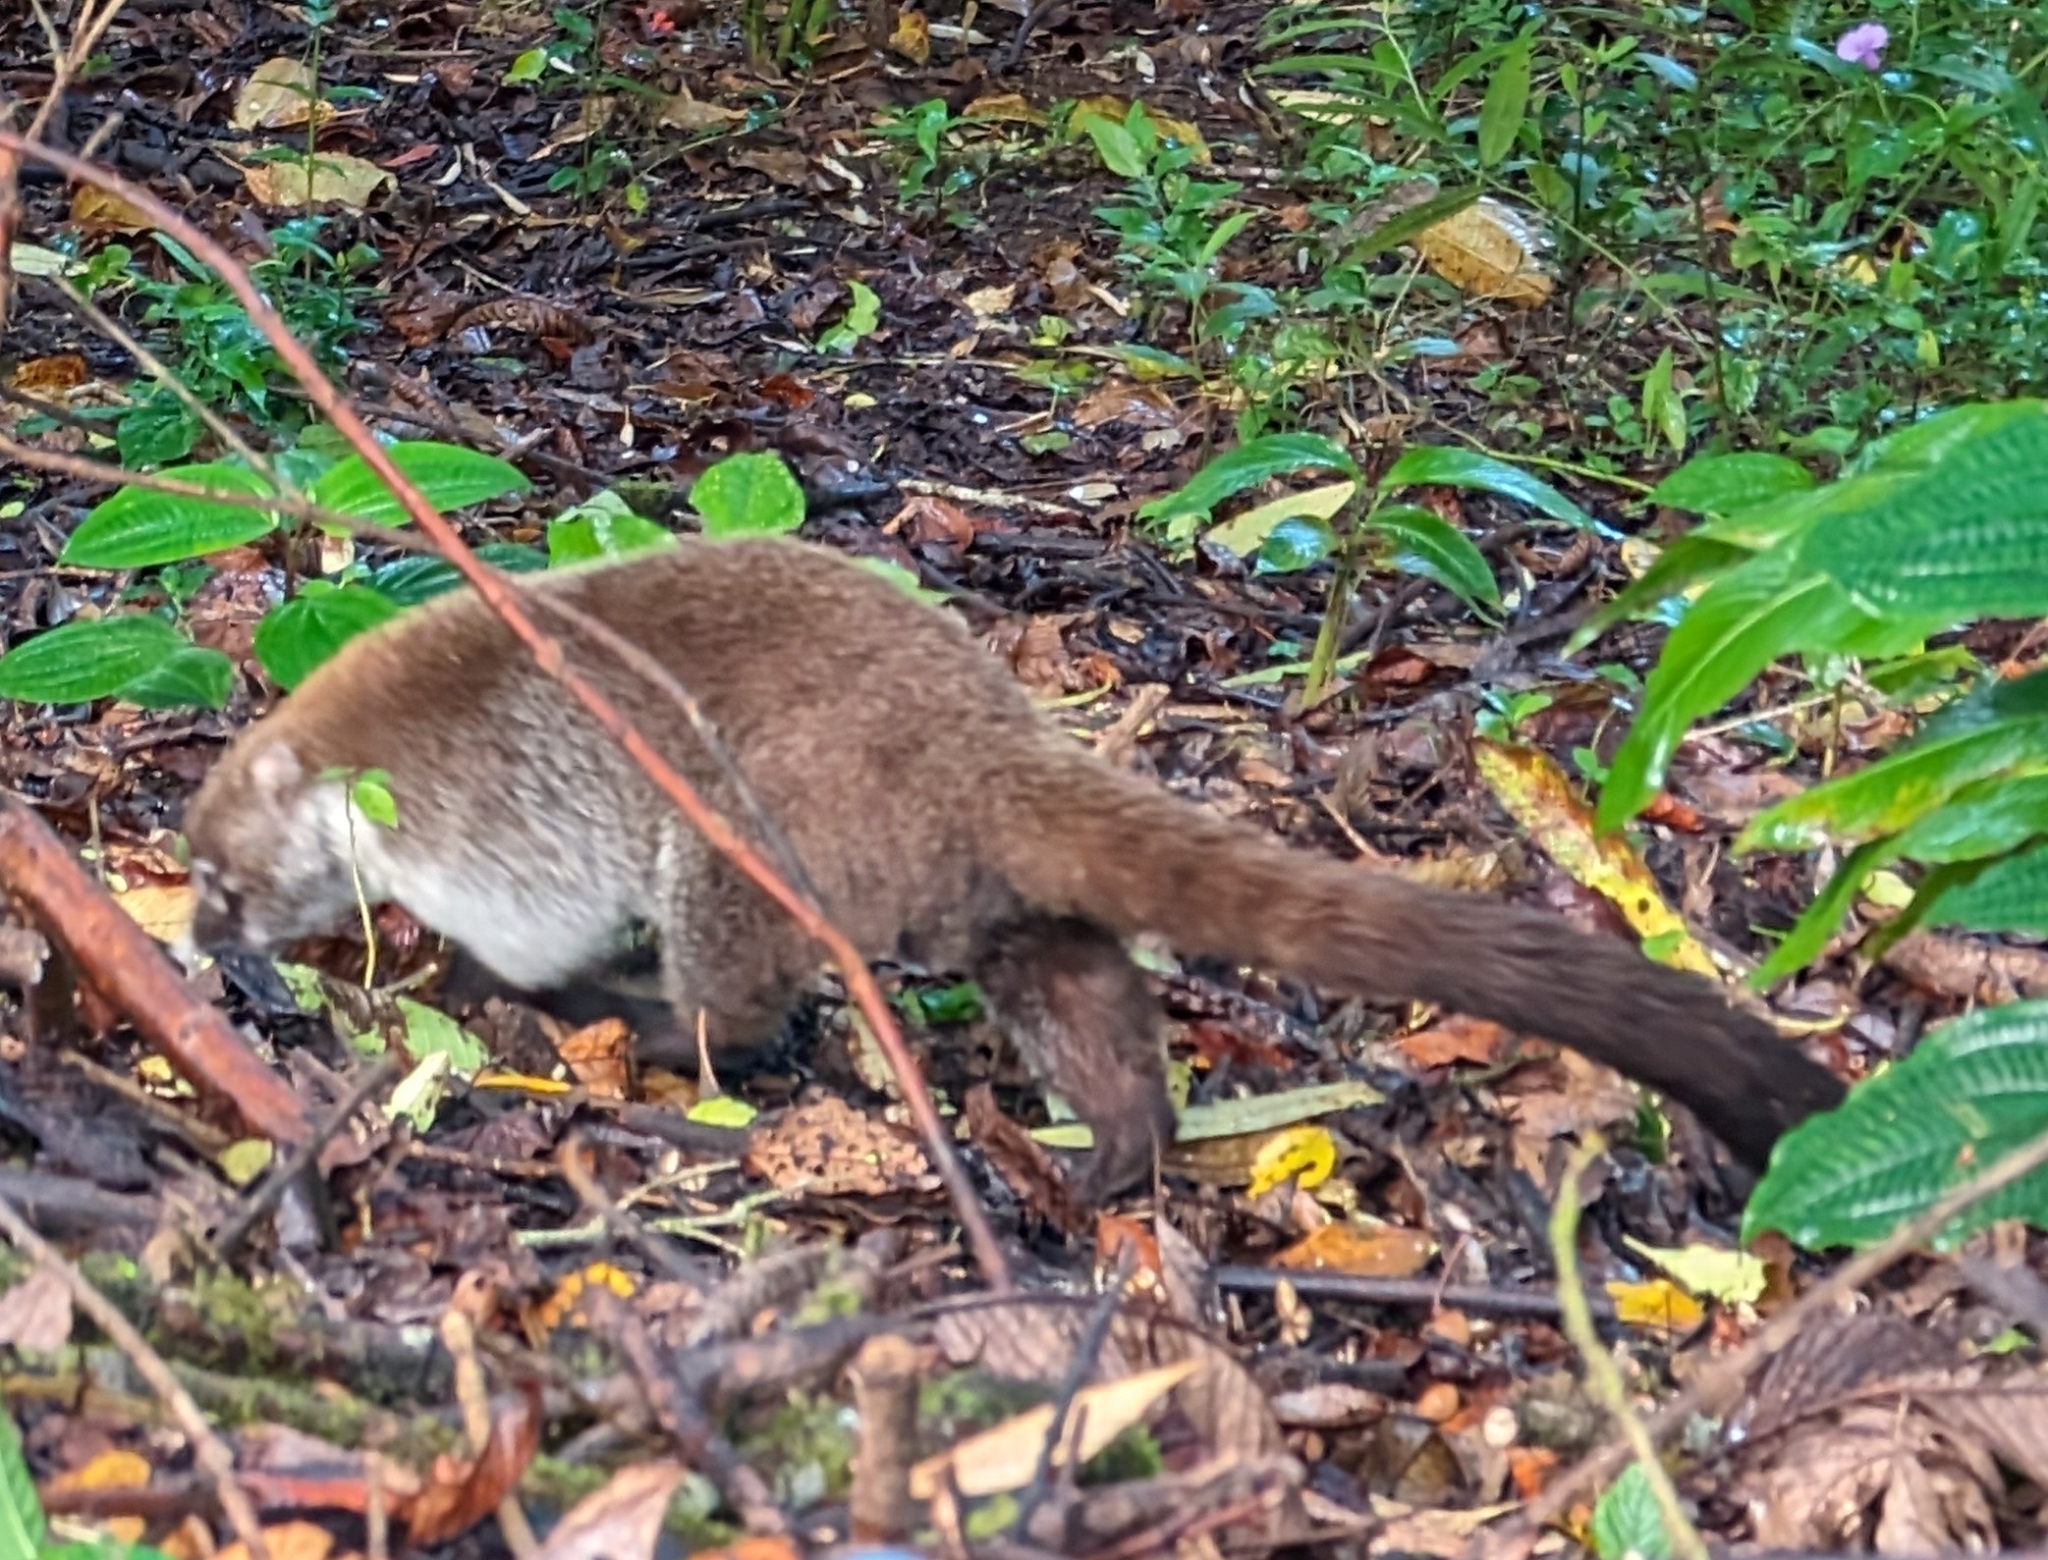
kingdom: Animalia
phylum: Chordata
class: Mammalia
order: Carnivora
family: Procyonidae
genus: Nasua
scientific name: Nasua narica
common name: White-nosed coati
